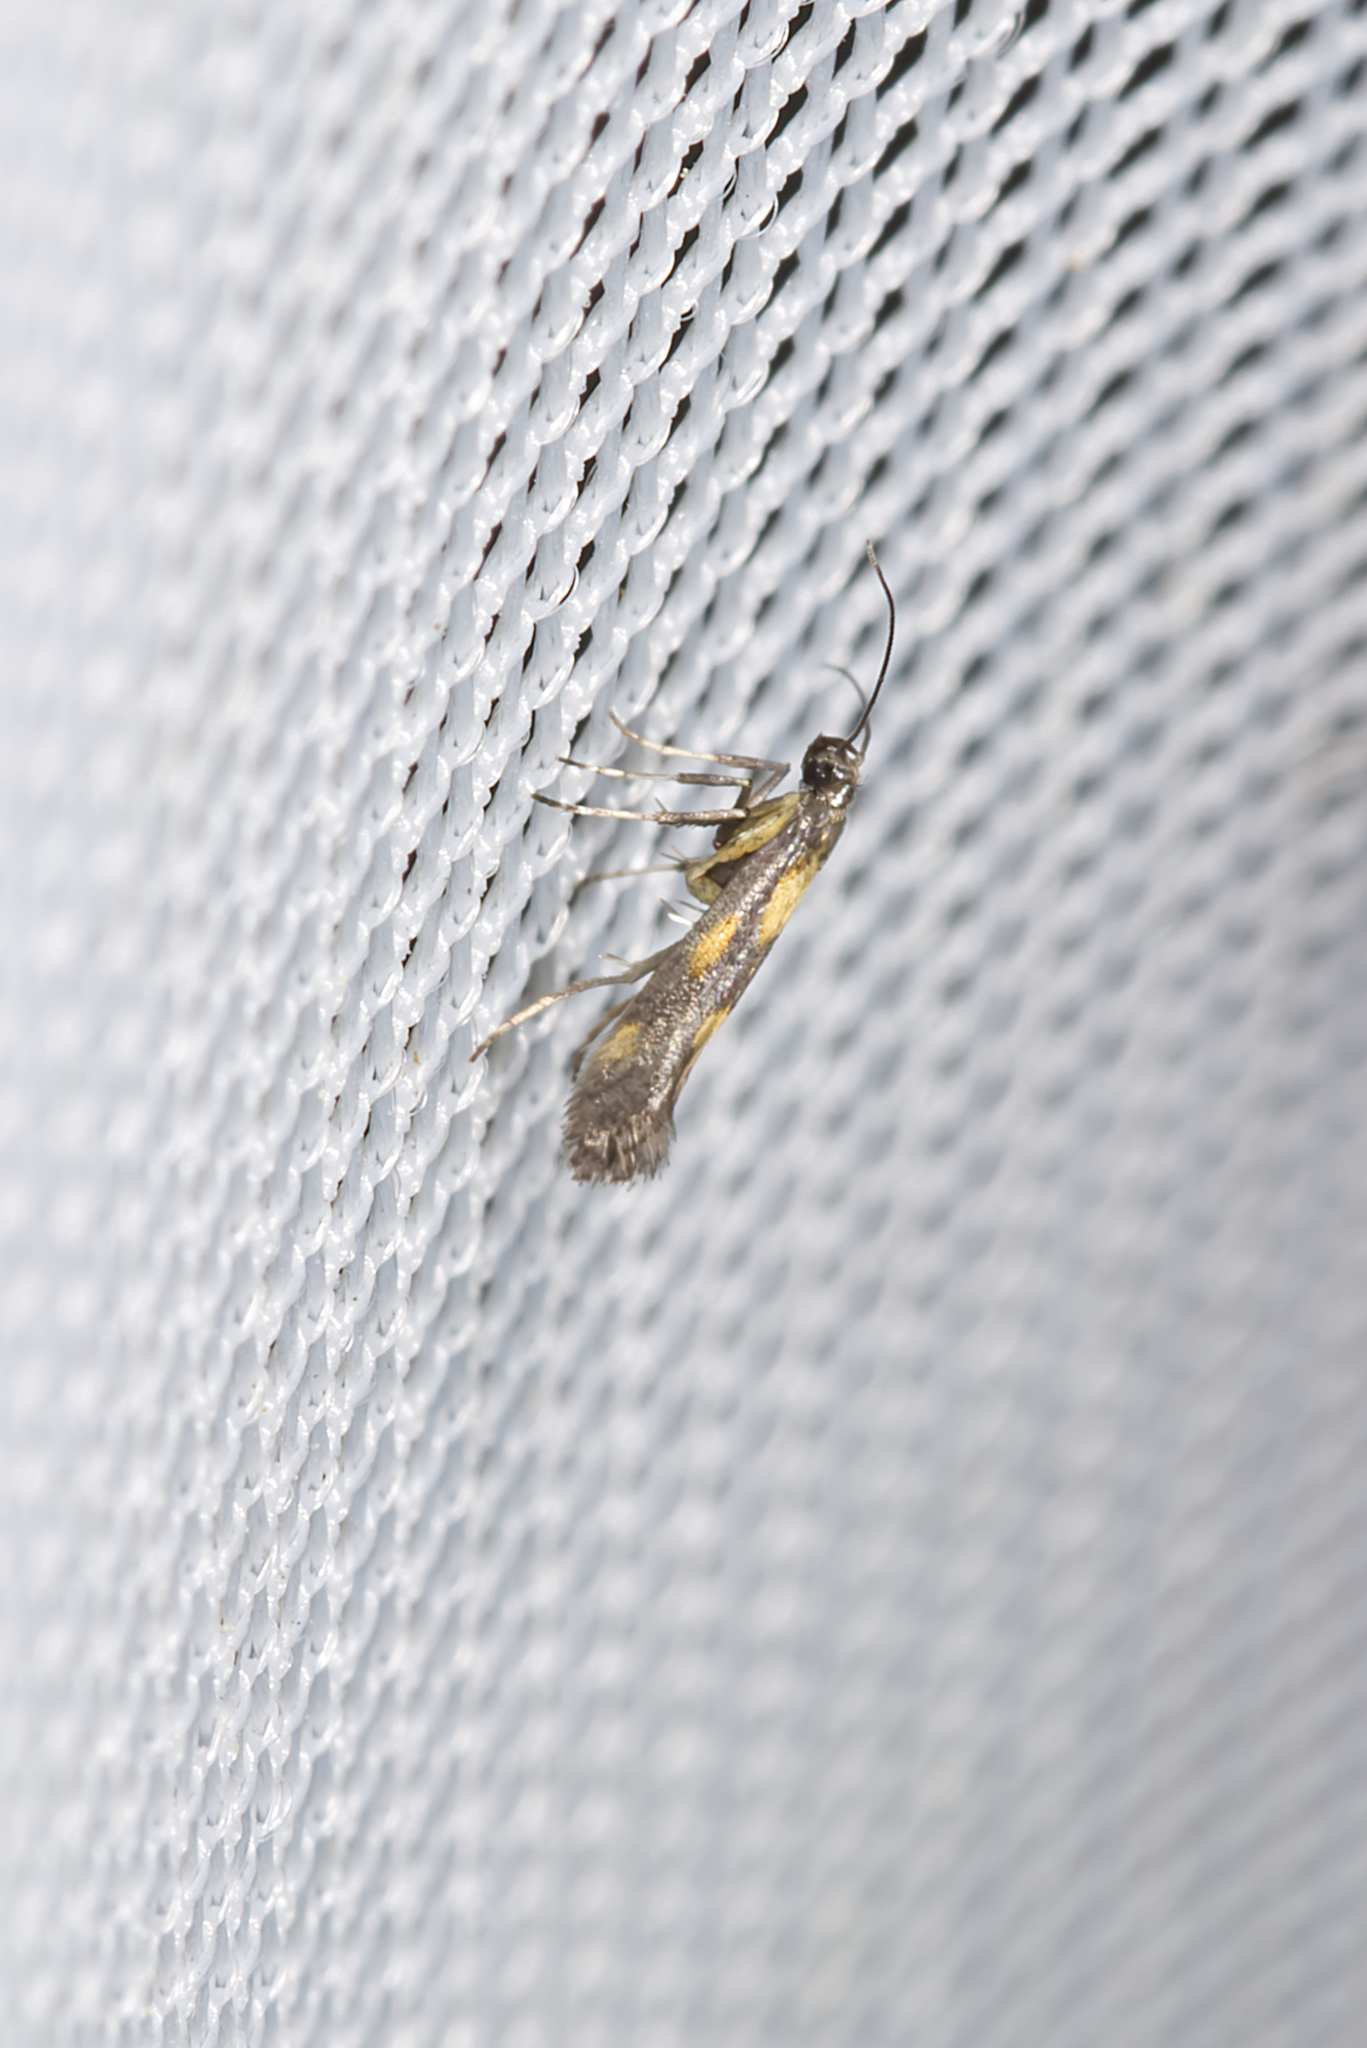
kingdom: Animalia
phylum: Arthropoda
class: Insecta
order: Lepidoptera
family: Gracillariidae
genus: Euspilapteryx
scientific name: Euspilapteryx auroguttella
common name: Gold-dot slender
